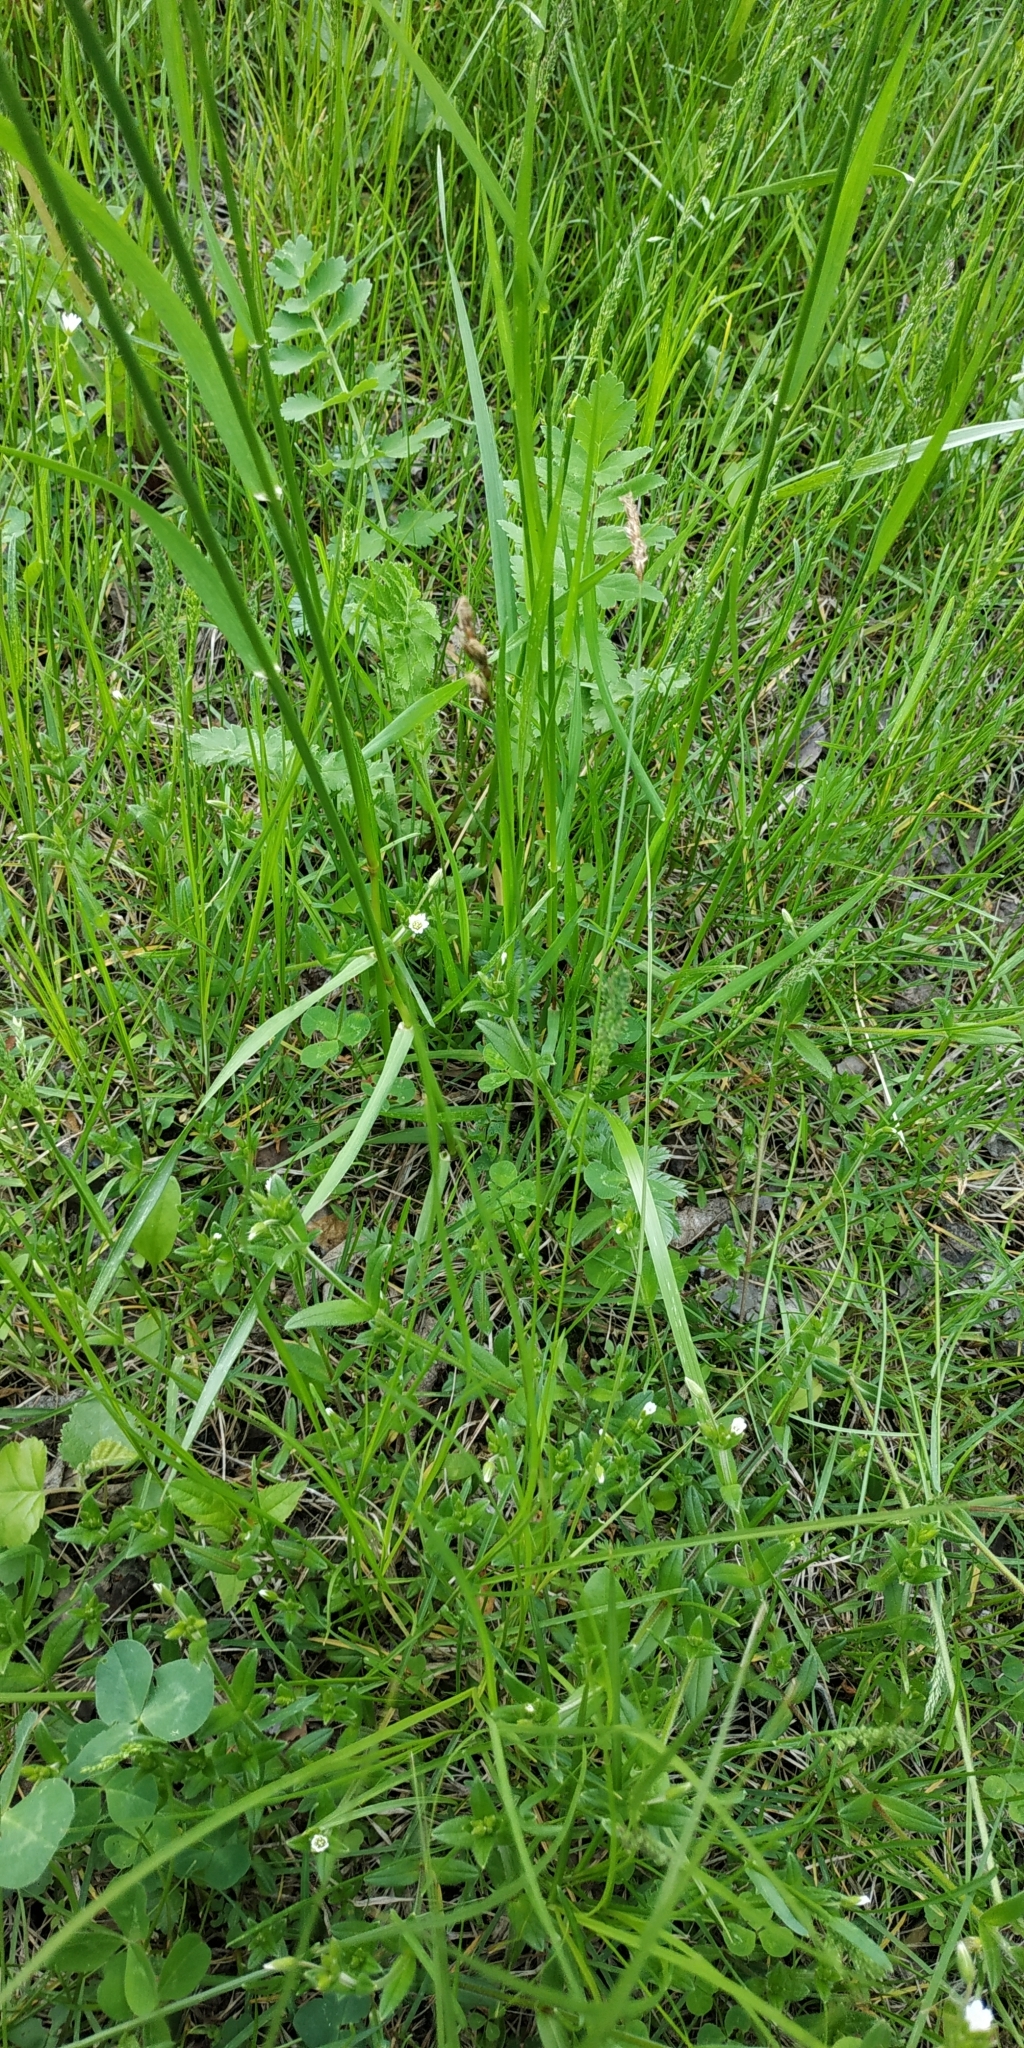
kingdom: Plantae
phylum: Tracheophyta
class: Liliopsida
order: Poales
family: Cyperaceae
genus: Carex
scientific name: Carex praecox
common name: Early sedge
